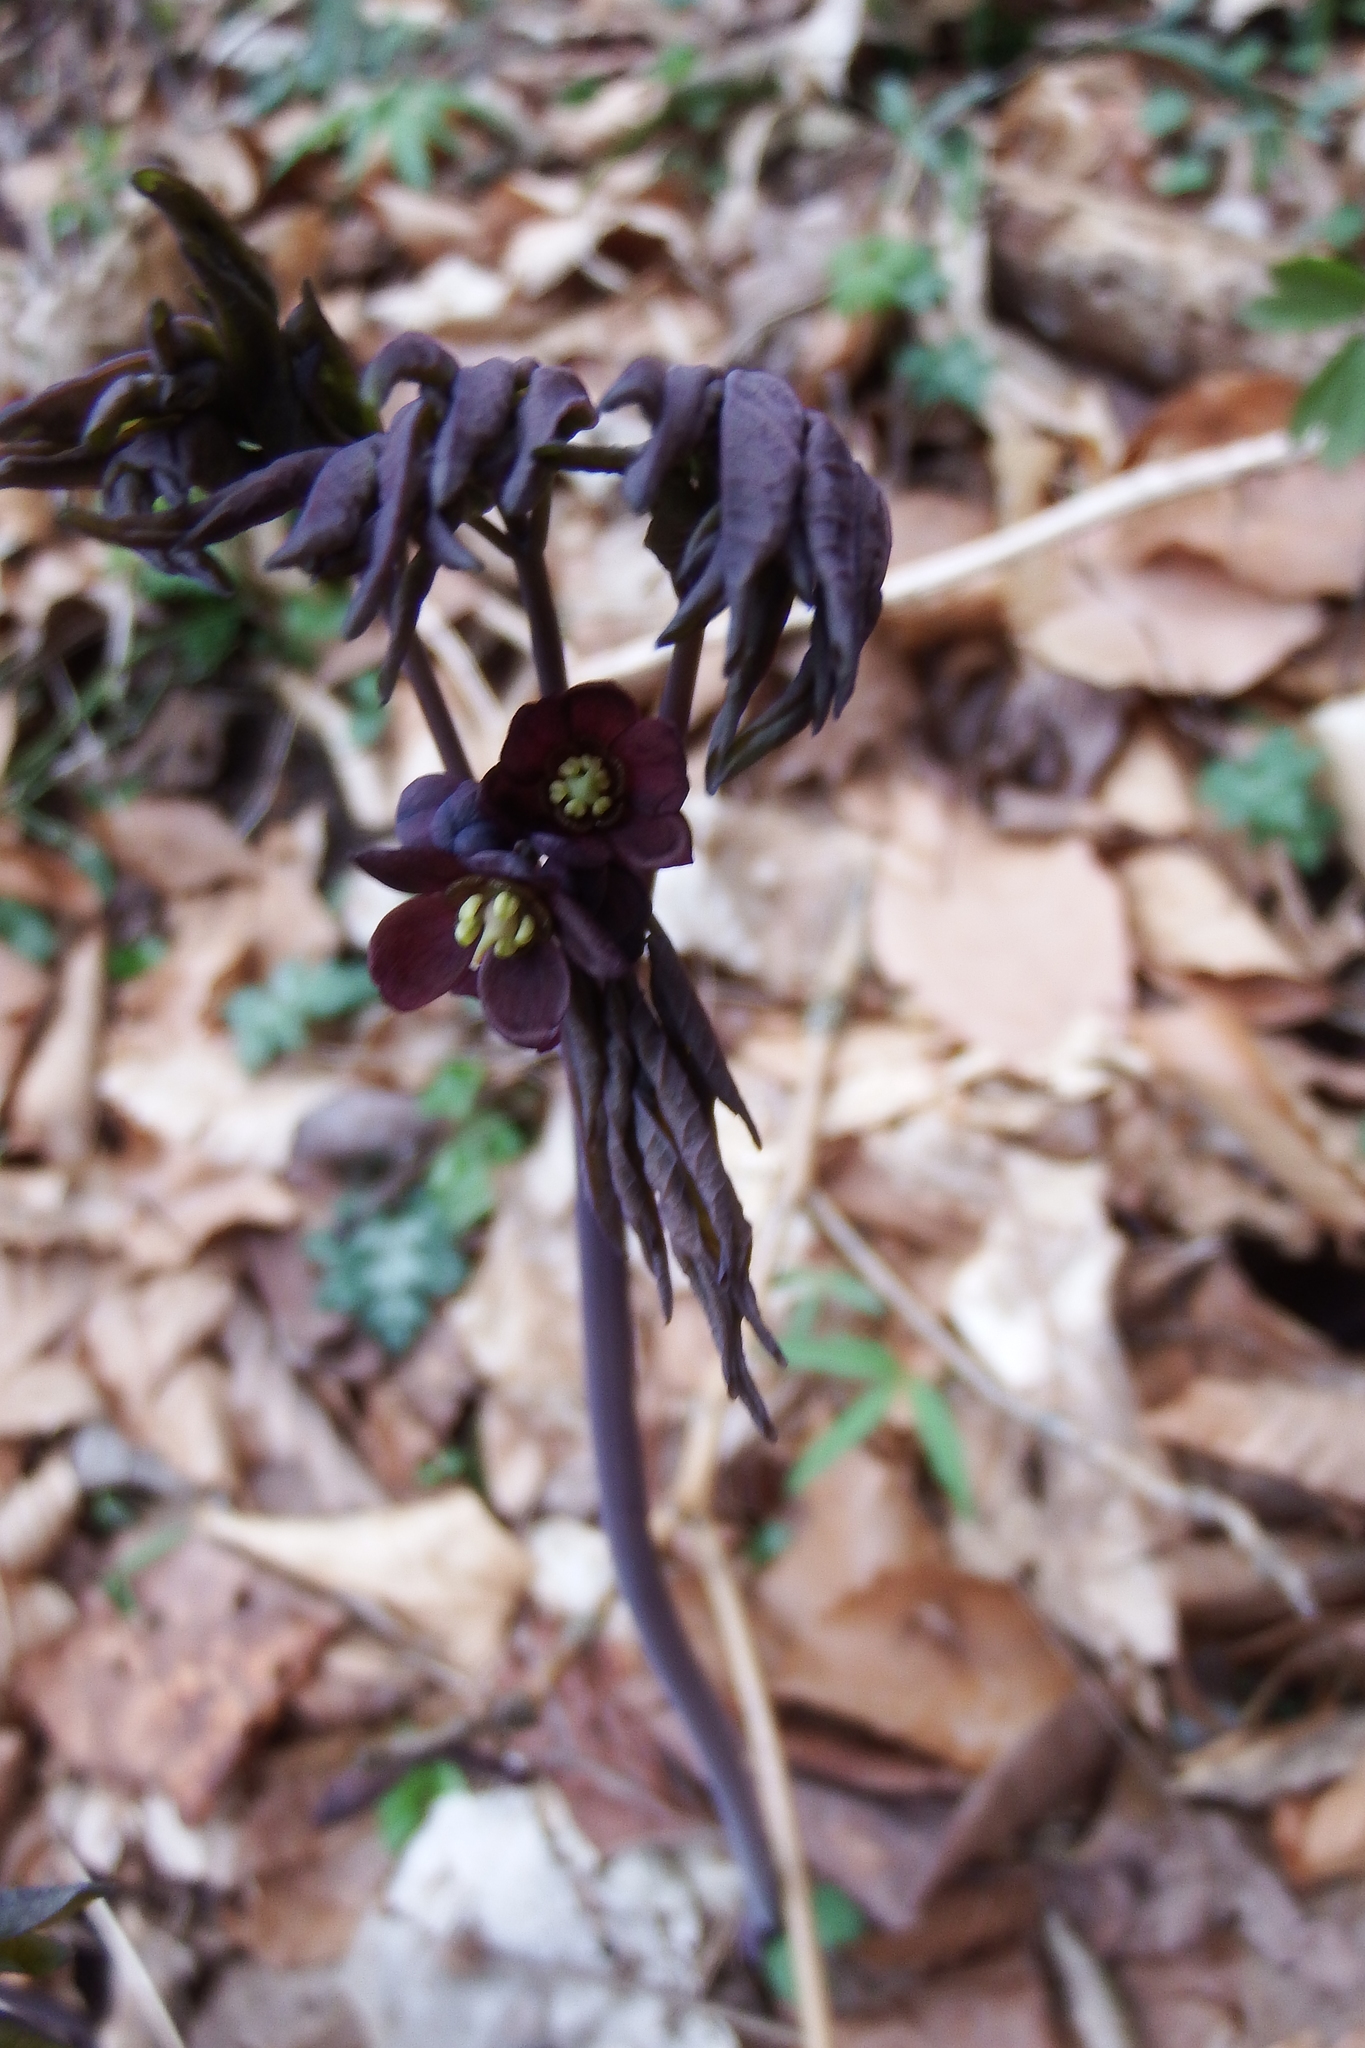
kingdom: Plantae
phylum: Tracheophyta
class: Magnoliopsida
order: Ranunculales
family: Berberidaceae
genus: Caulophyllum
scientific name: Caulophyllum giganteum
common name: Blue cohosh
